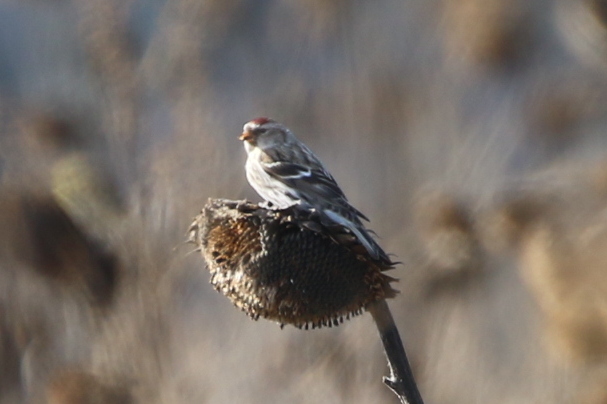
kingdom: Animalia
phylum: Chordata
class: Aves
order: Passeriformes
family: Fringillidae
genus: Acanthis
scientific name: Acanthis flammea
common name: Common redpoll
